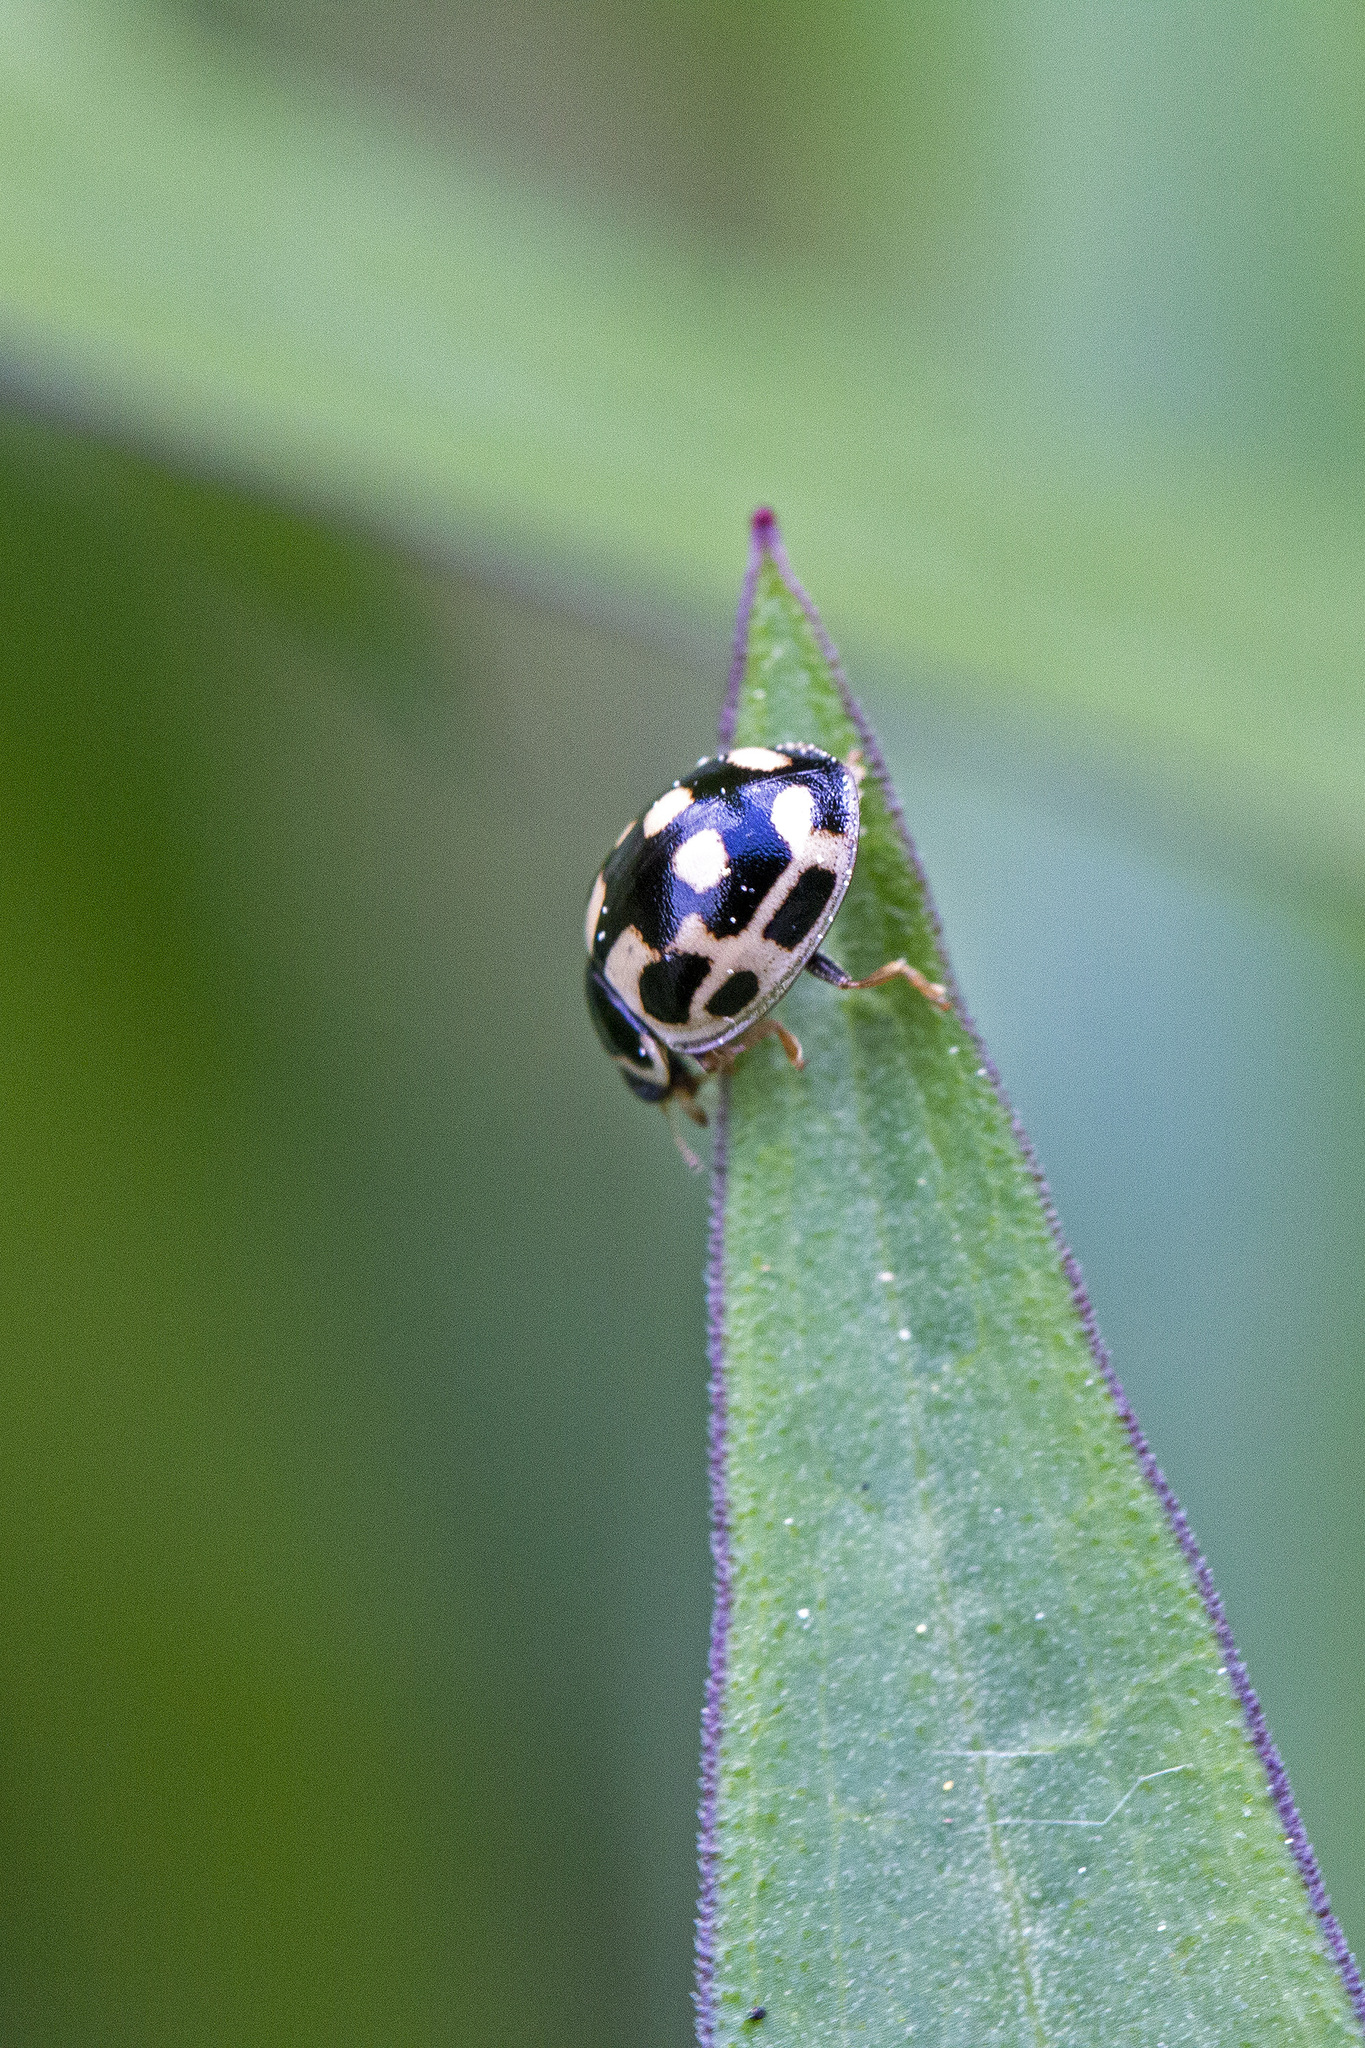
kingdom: Animalia
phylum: Arthropoda
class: Insecta
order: Coleoptera
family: Coccinellidae
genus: Propylaea
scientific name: Propylaea quatuordecimpunctata
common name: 14-spotted ladybird beetle
